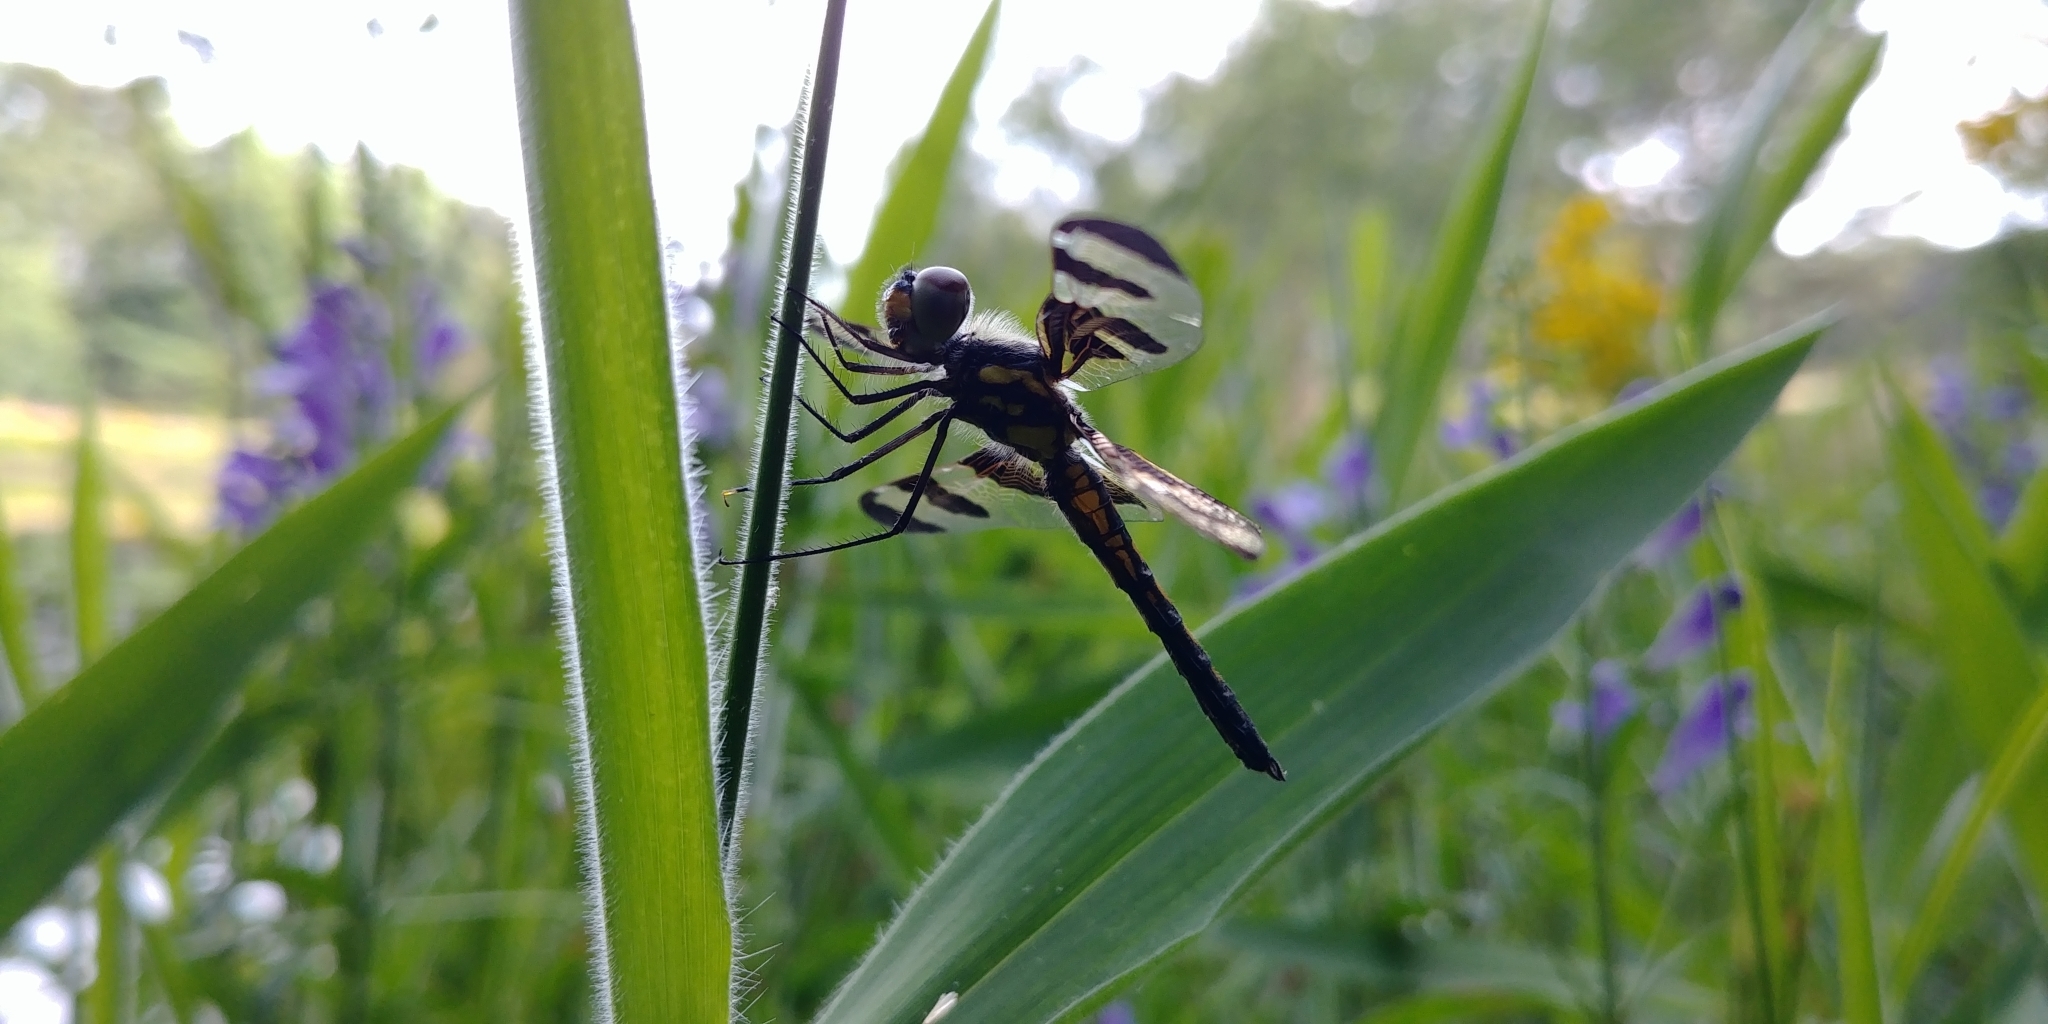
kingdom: Animalia
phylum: Arthropoda
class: Insecta
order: Odonata
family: Libellulidae
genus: Celithemis
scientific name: Celithemis fasciata
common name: Banded pennant
